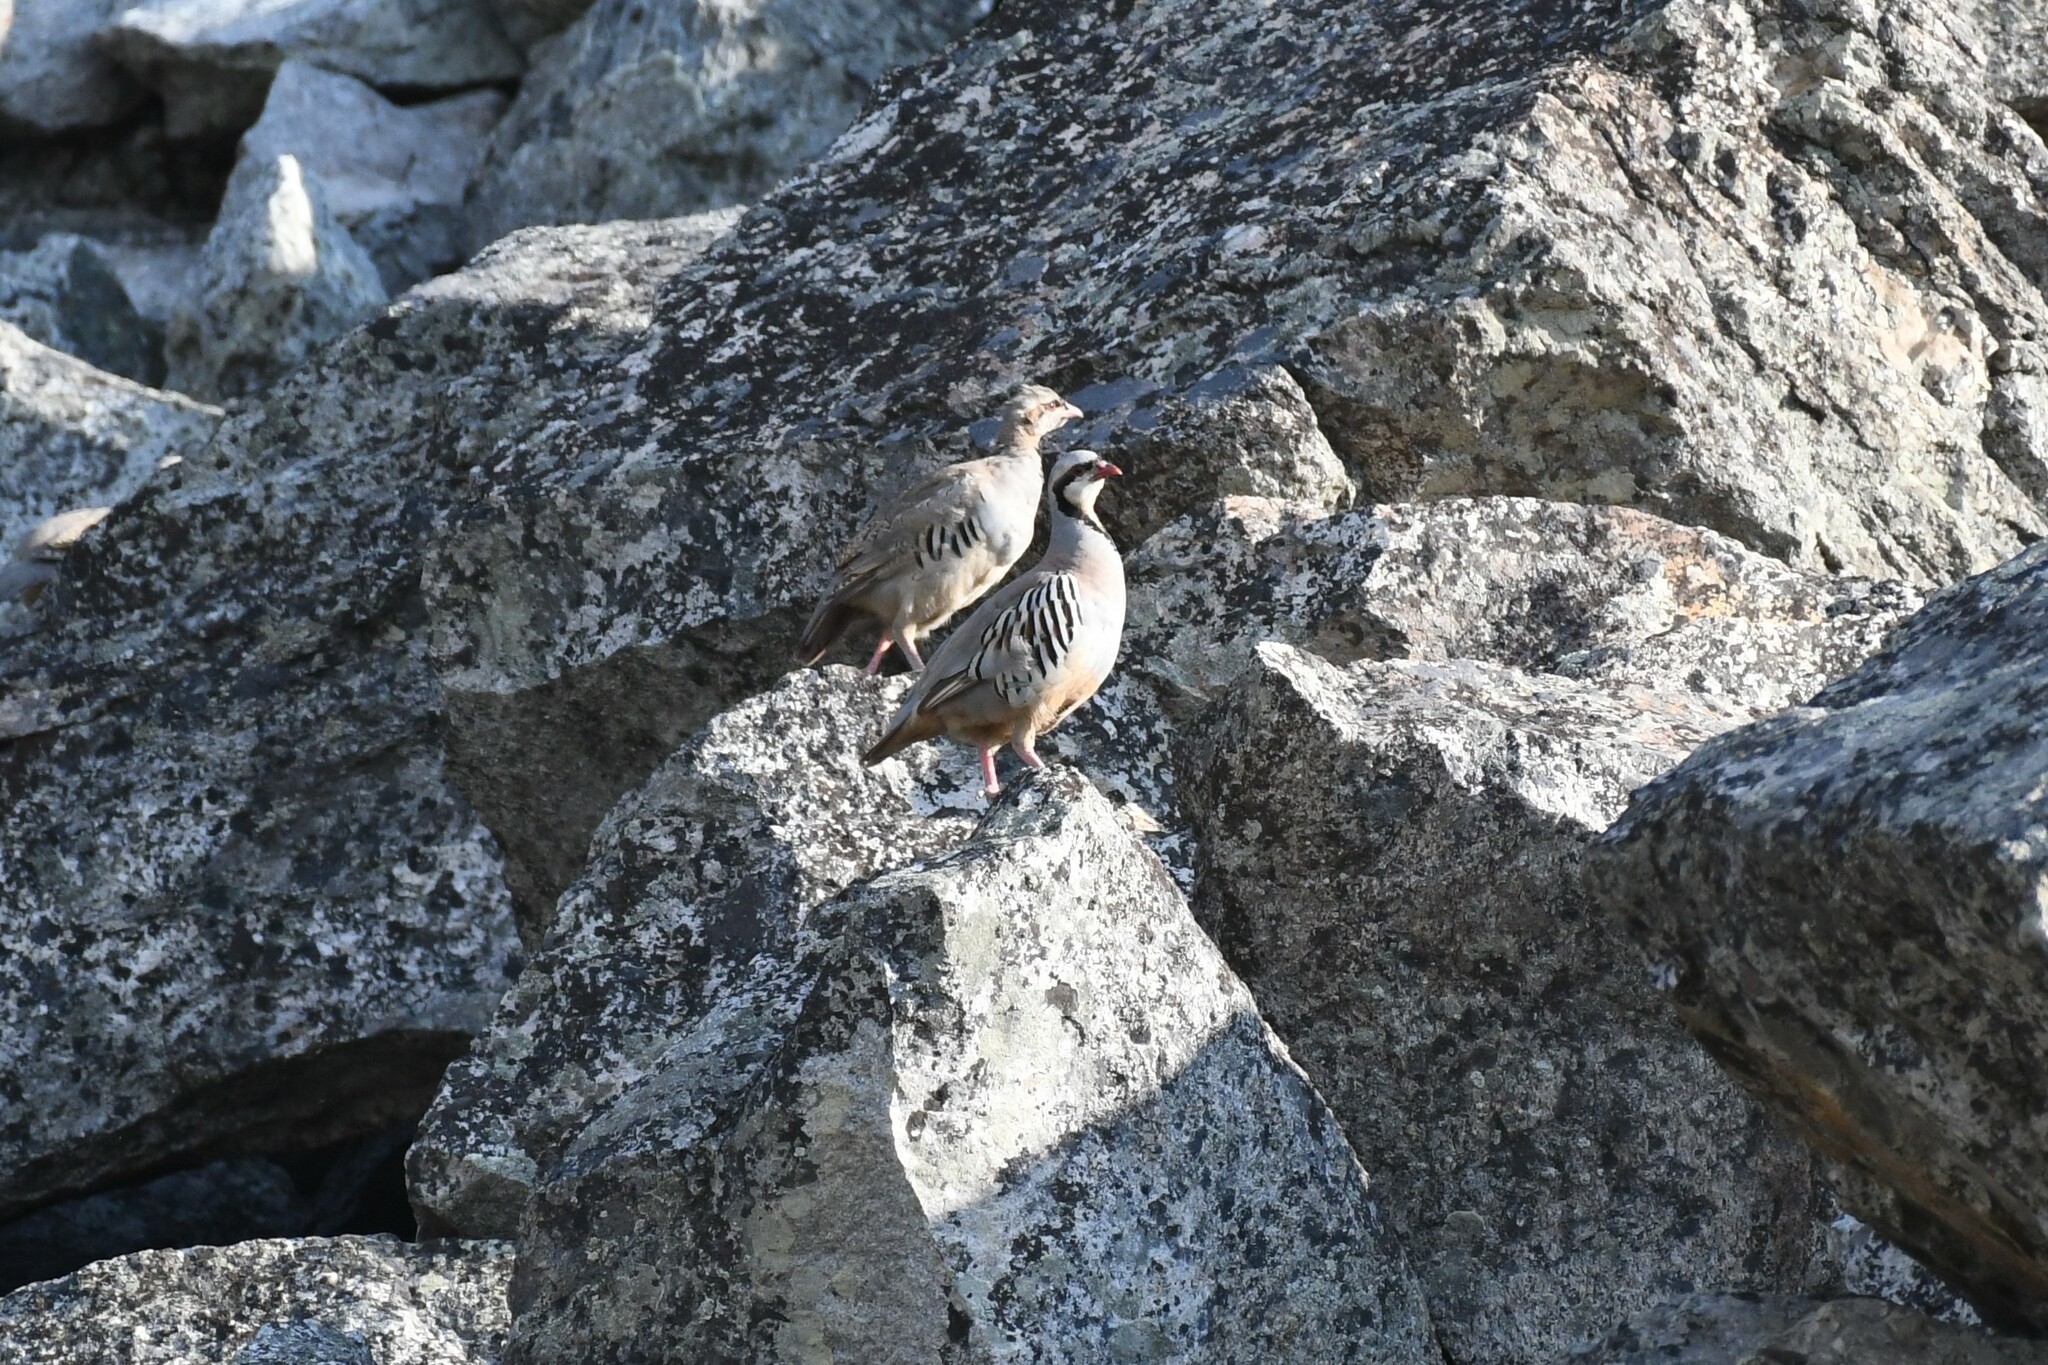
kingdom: Animalia
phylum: Chordata
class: Aves
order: Galliformes
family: Phasianidae
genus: Alectoris
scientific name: Alectoris chukar
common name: Chukar
